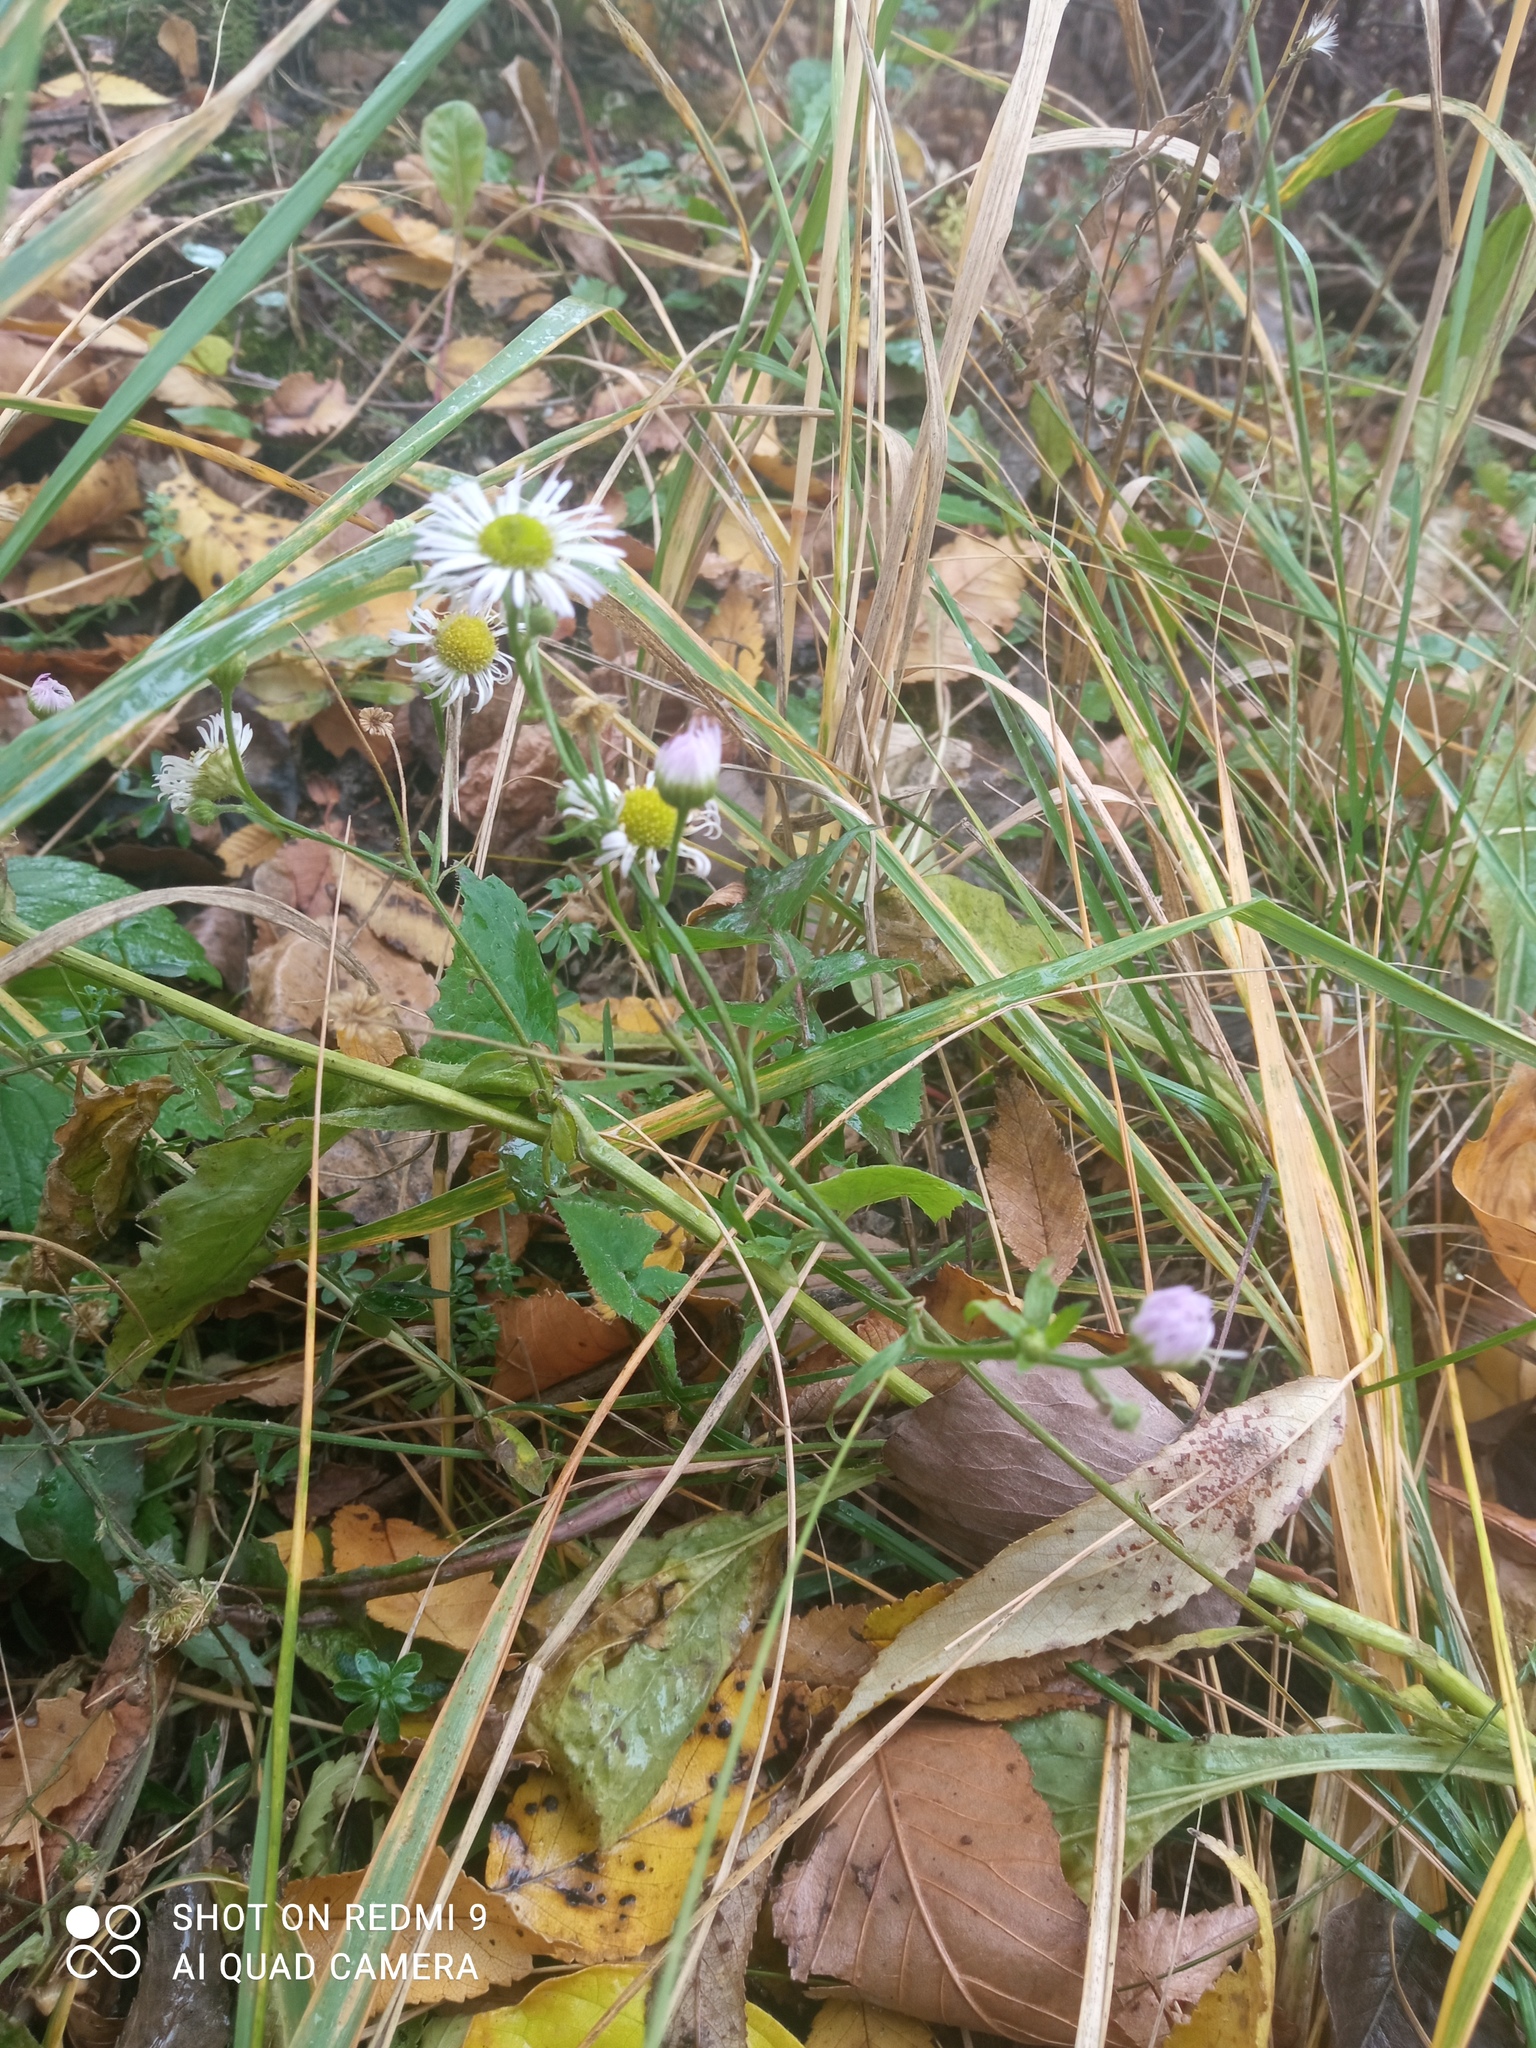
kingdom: Plantae
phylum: Tracheophyta
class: Magnoliopsida
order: Asterales
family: Asteraceae
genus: Erigeron
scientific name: Erigeron annuus
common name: Tall fleabane
